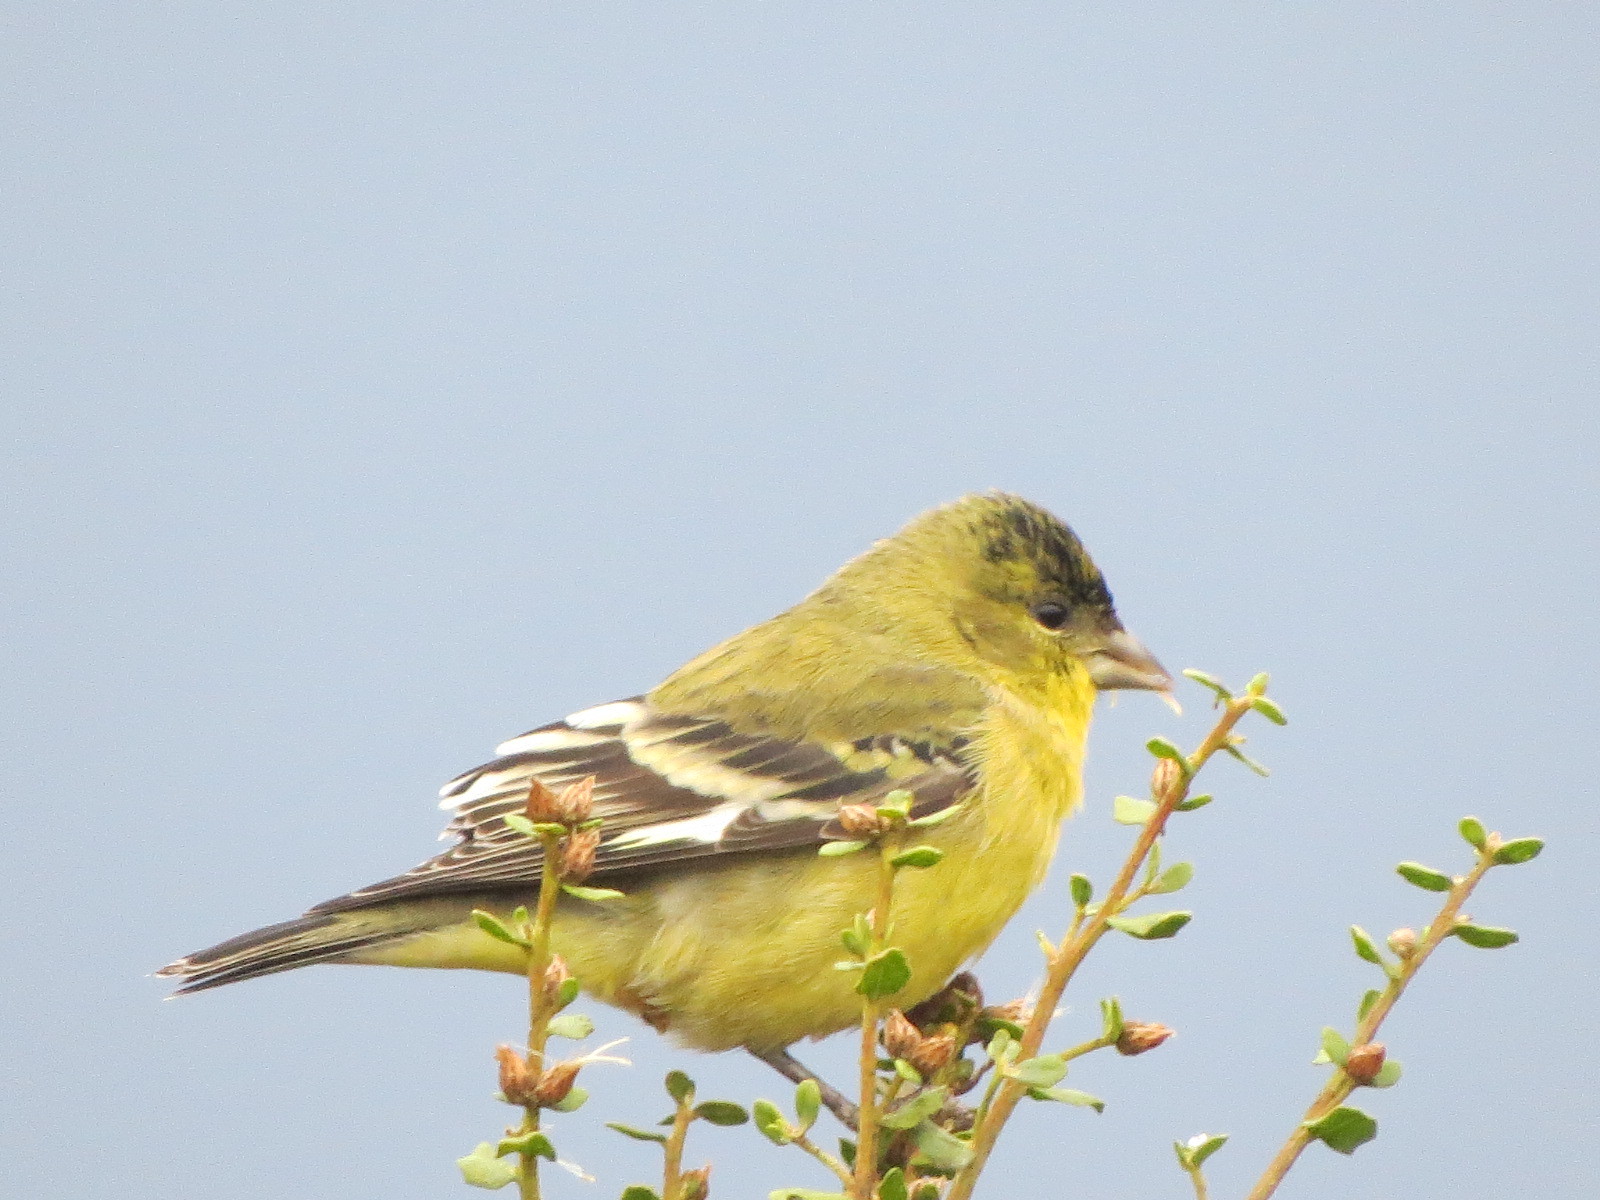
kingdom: Animalia
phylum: Chordata
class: Aves
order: Passeriformes
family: Fringillidae
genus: Spinus
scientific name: Spinus psaltria
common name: Lesser goldfinch
